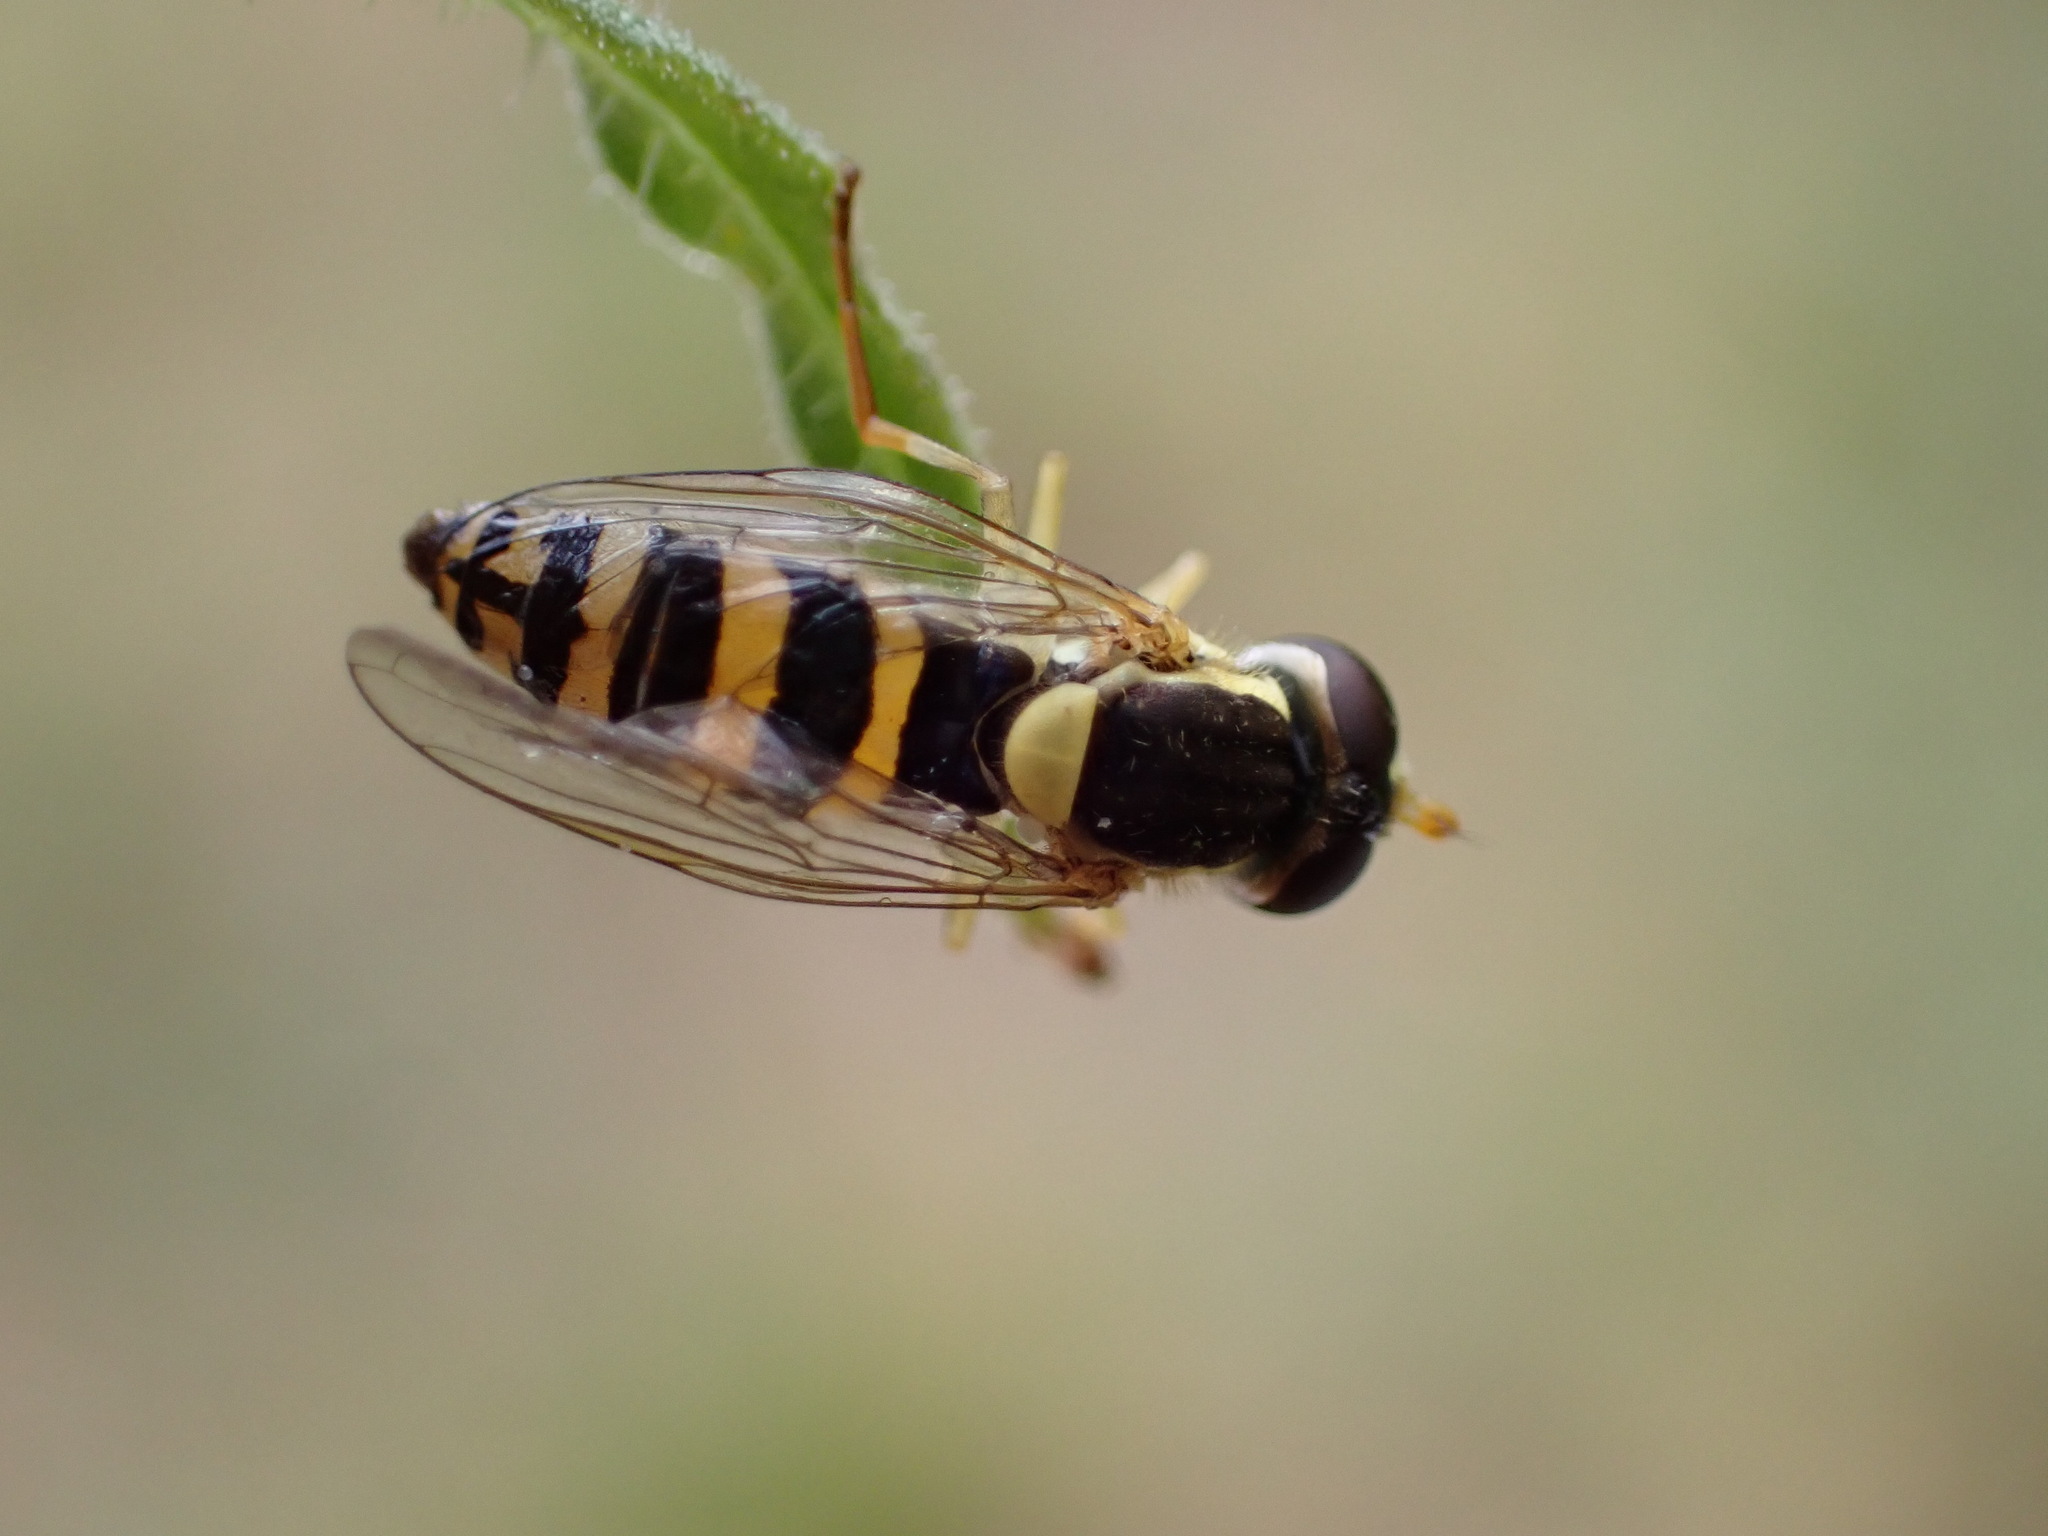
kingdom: Animalia
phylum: Arthropoda
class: Insecta
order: Diptera
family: Syrphidae
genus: Sphaerophoria
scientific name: Sphaerophoria
